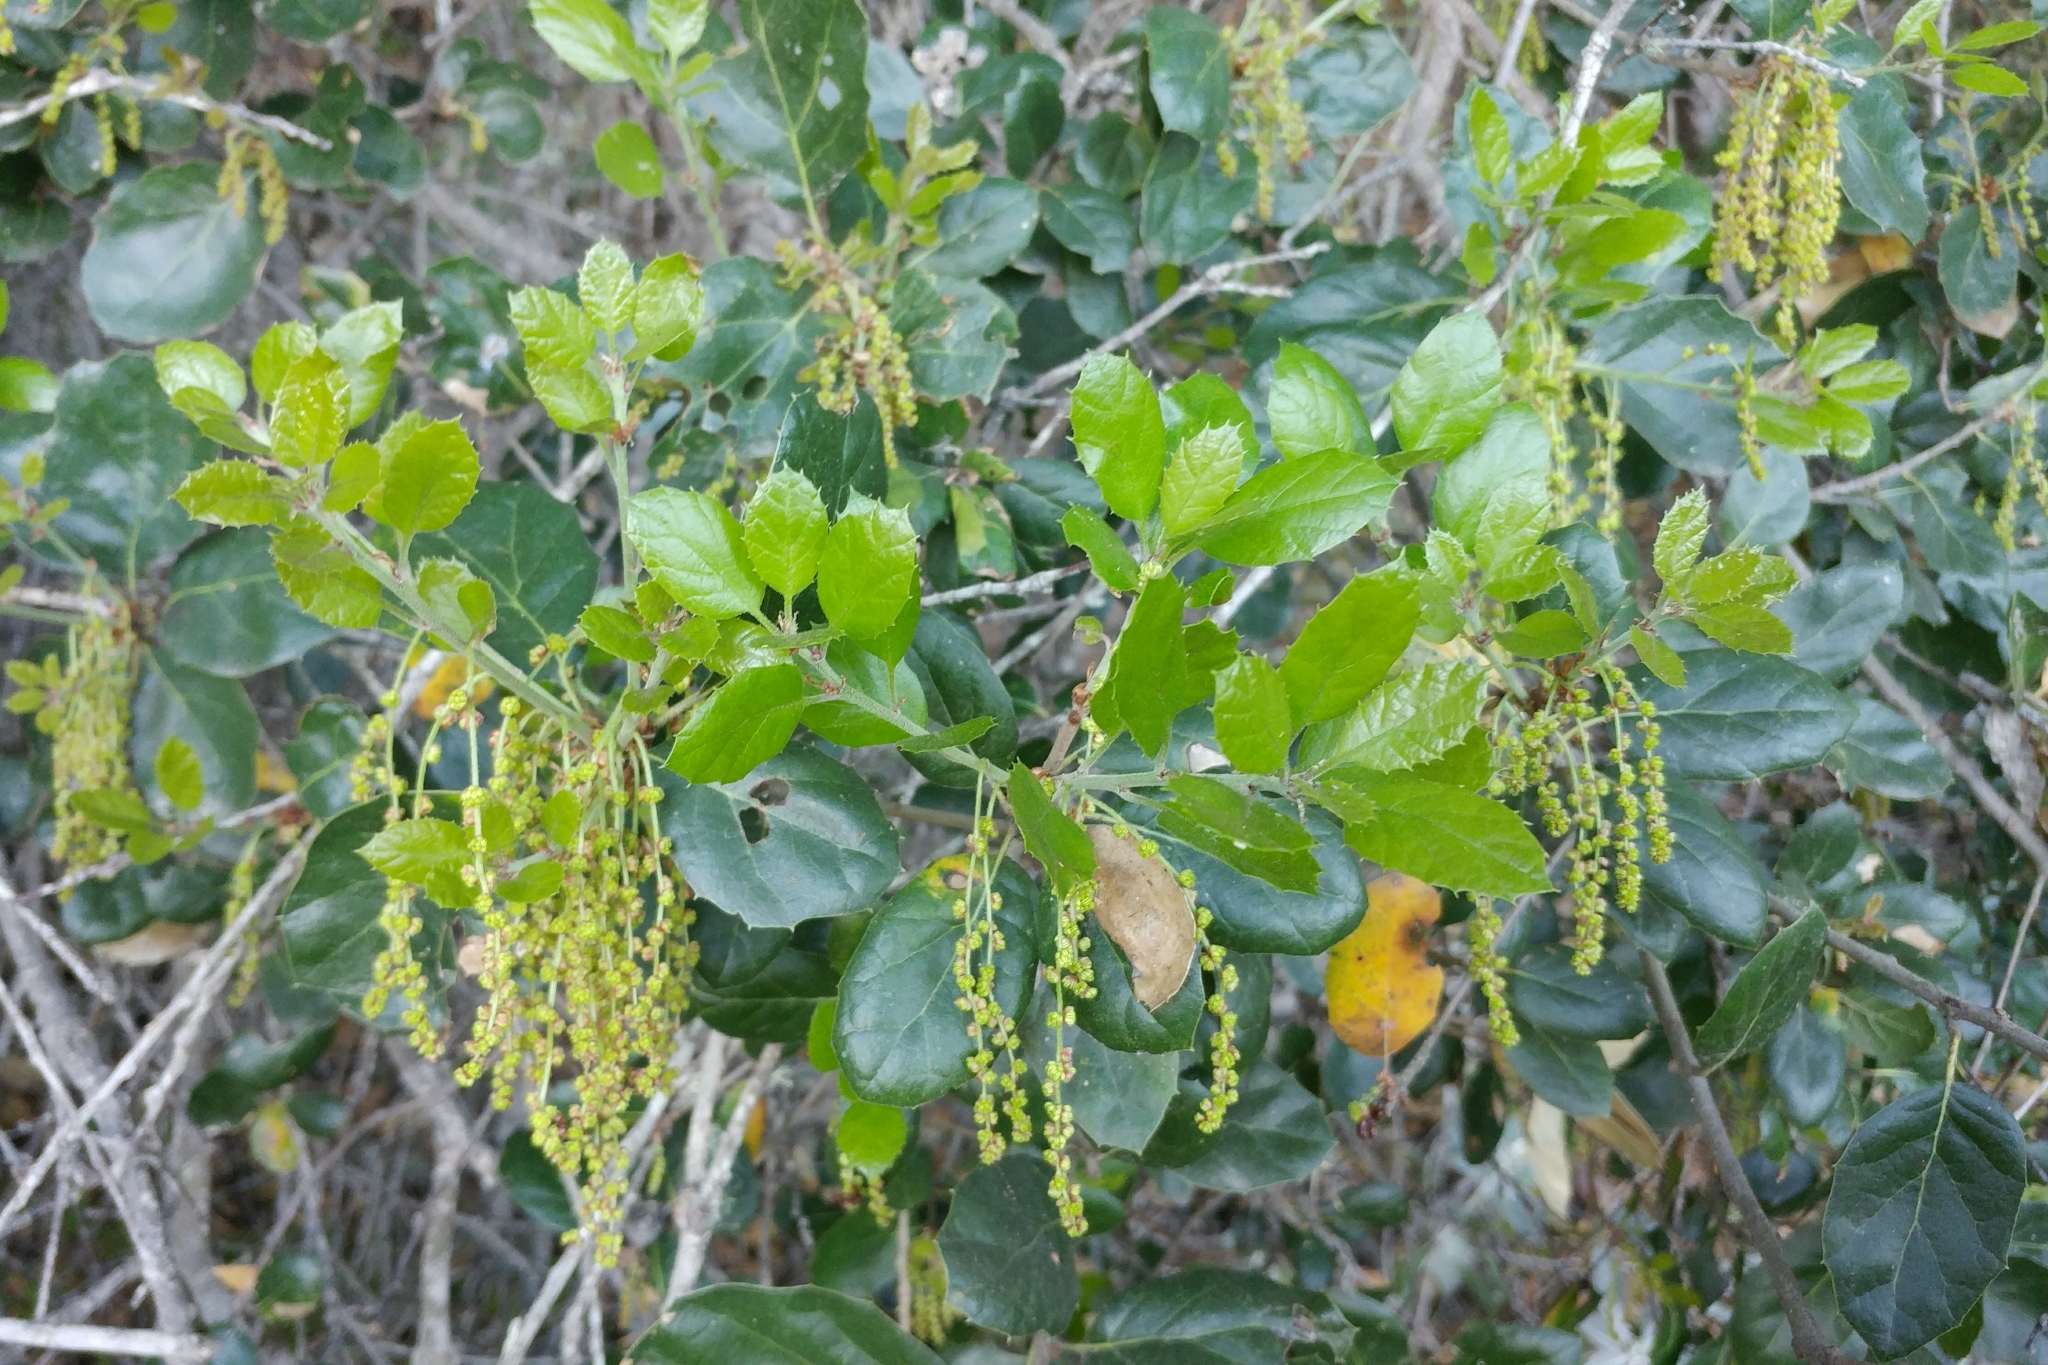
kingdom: Plantae
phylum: Tracheophyta
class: Magnoliopsida
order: Fagales
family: Fagaceae
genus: Quercus
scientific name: Quercus agrifolia
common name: California live oak
